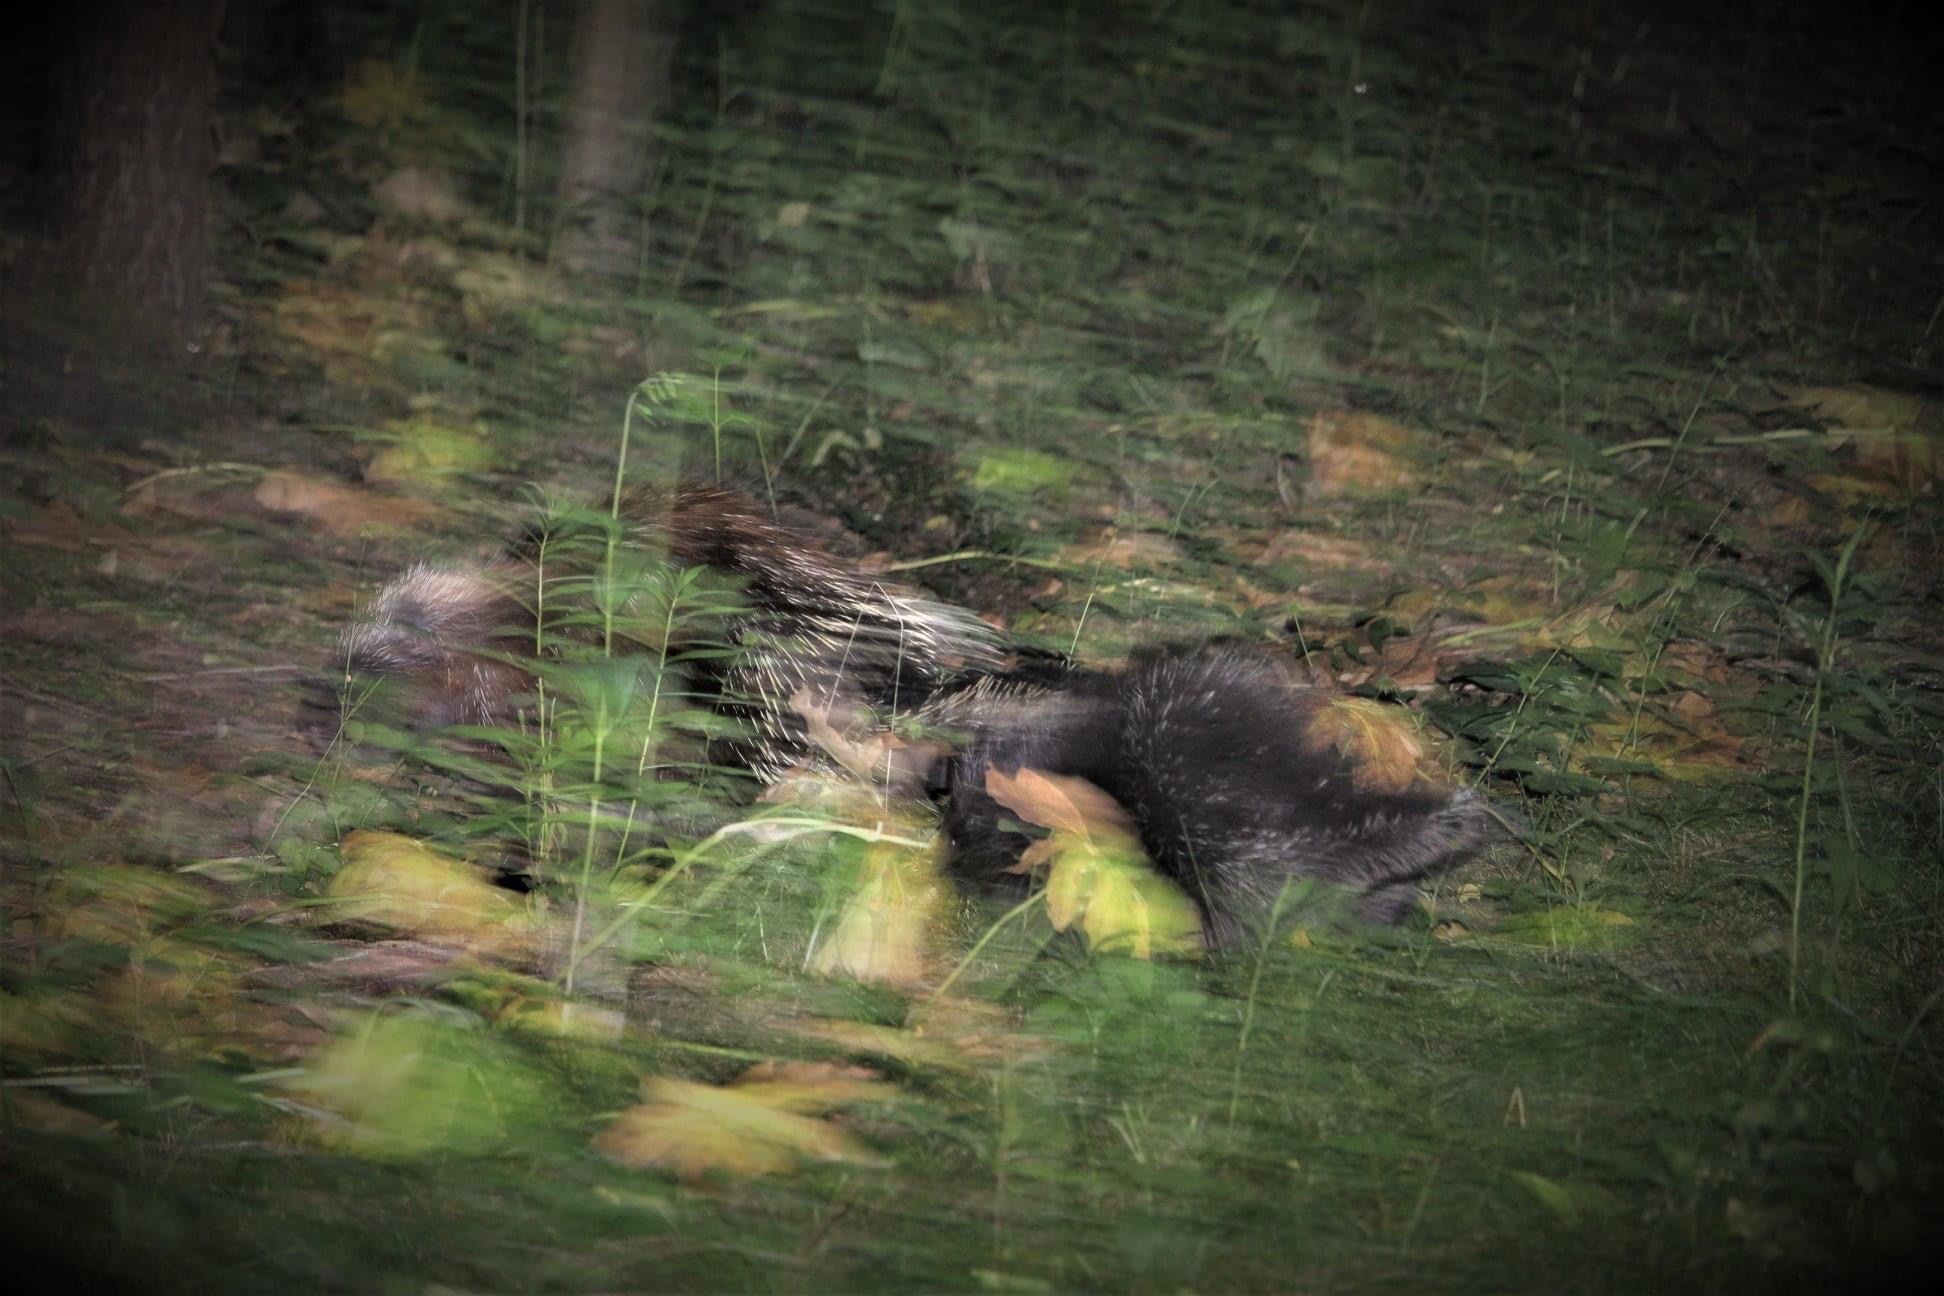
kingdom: Animalia
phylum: Chordata
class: Mammalia
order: Rodentia
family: Erethizontidae
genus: Erethizon
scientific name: Erethizon dorsatus
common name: North american porcupine
